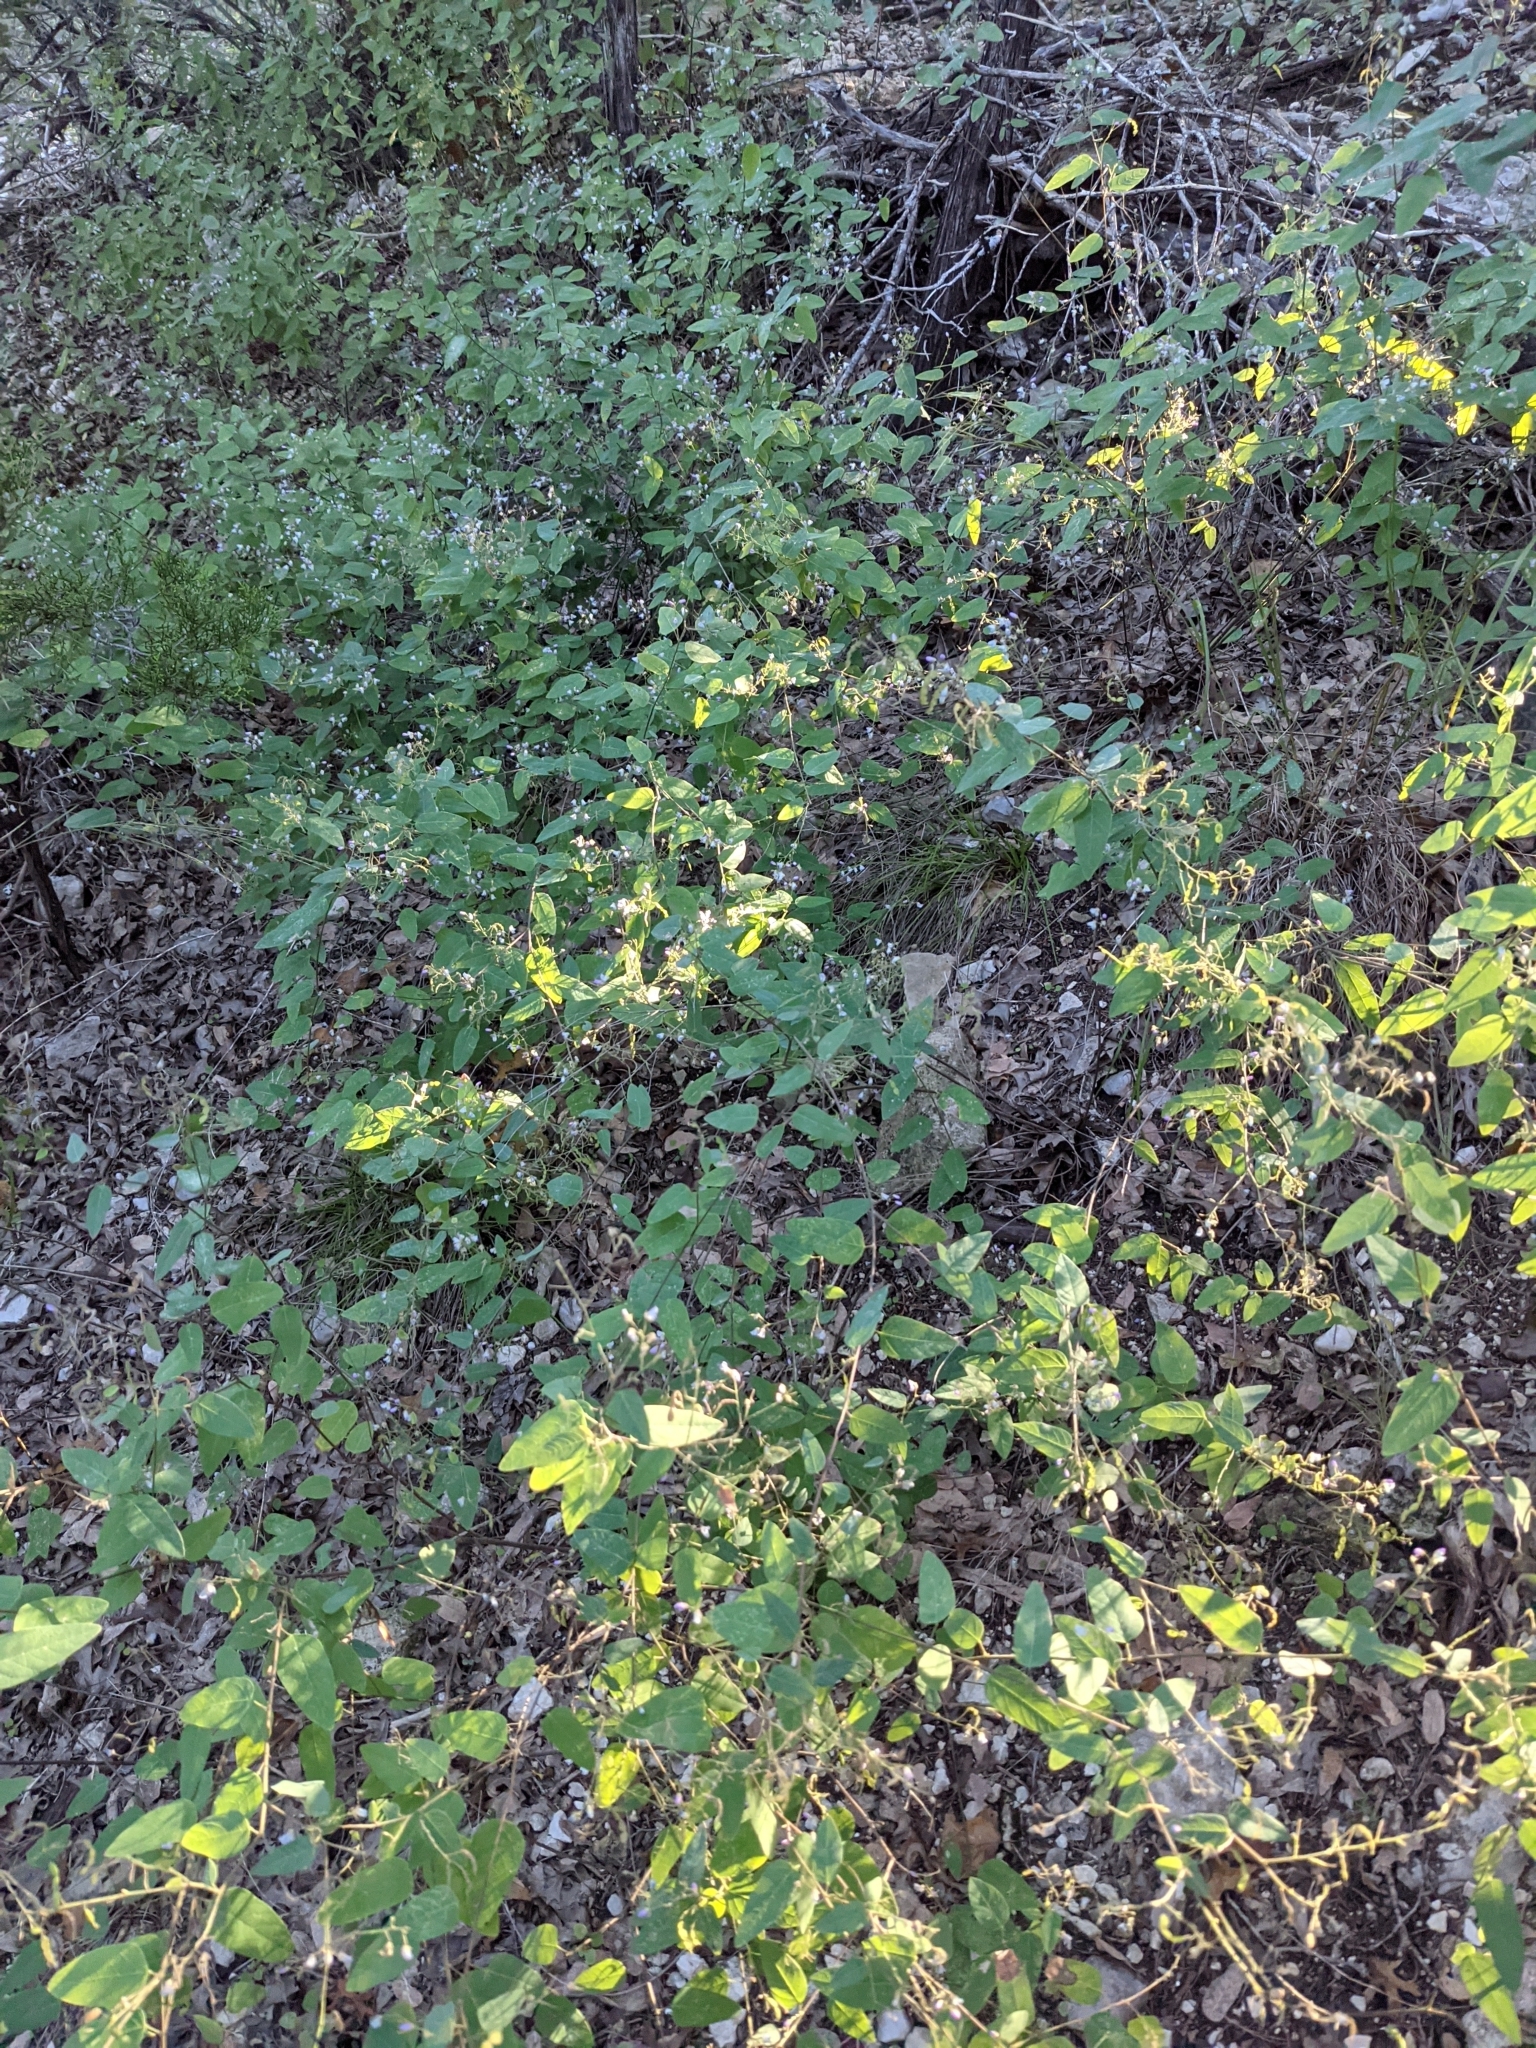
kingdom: Plantae
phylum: Tracheophyta
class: Magnoliopsida
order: Fabales
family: Fabaceae
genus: Desmodium
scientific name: Desmodium psilophyllum
